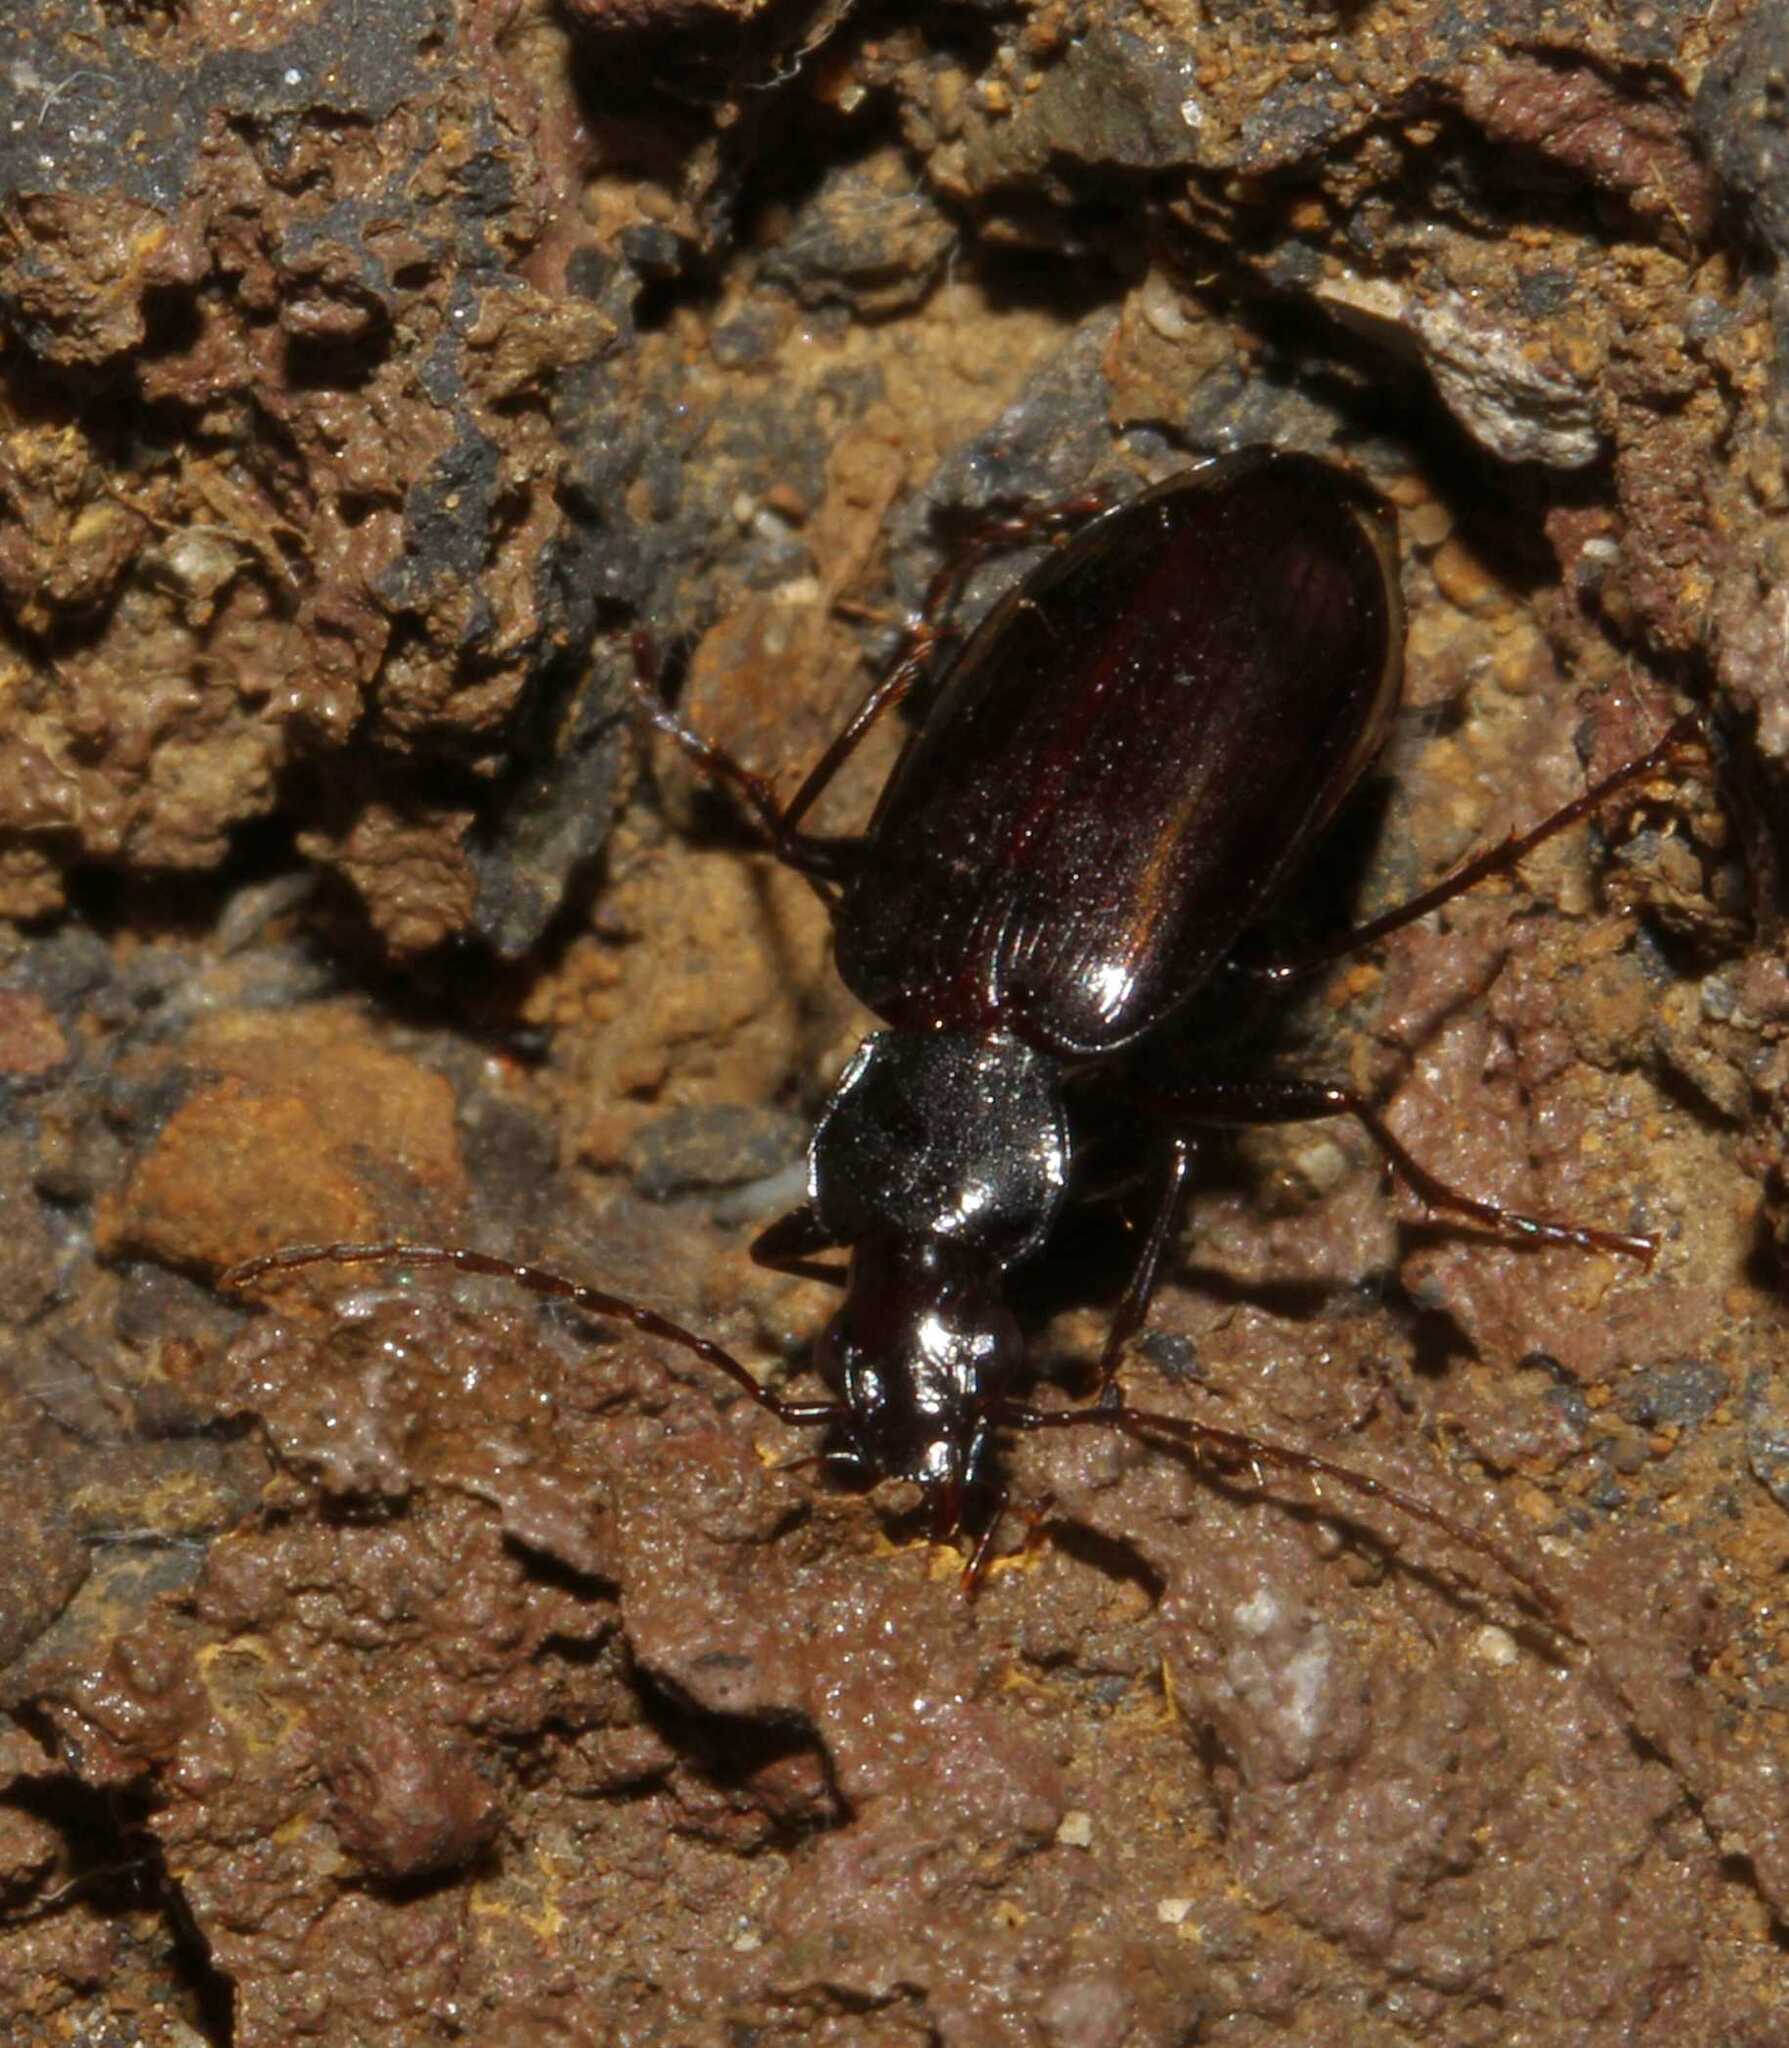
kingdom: Animalia
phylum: Arthropoda
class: Insecta
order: Coleoptera
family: Carabidae
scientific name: Carabidae
